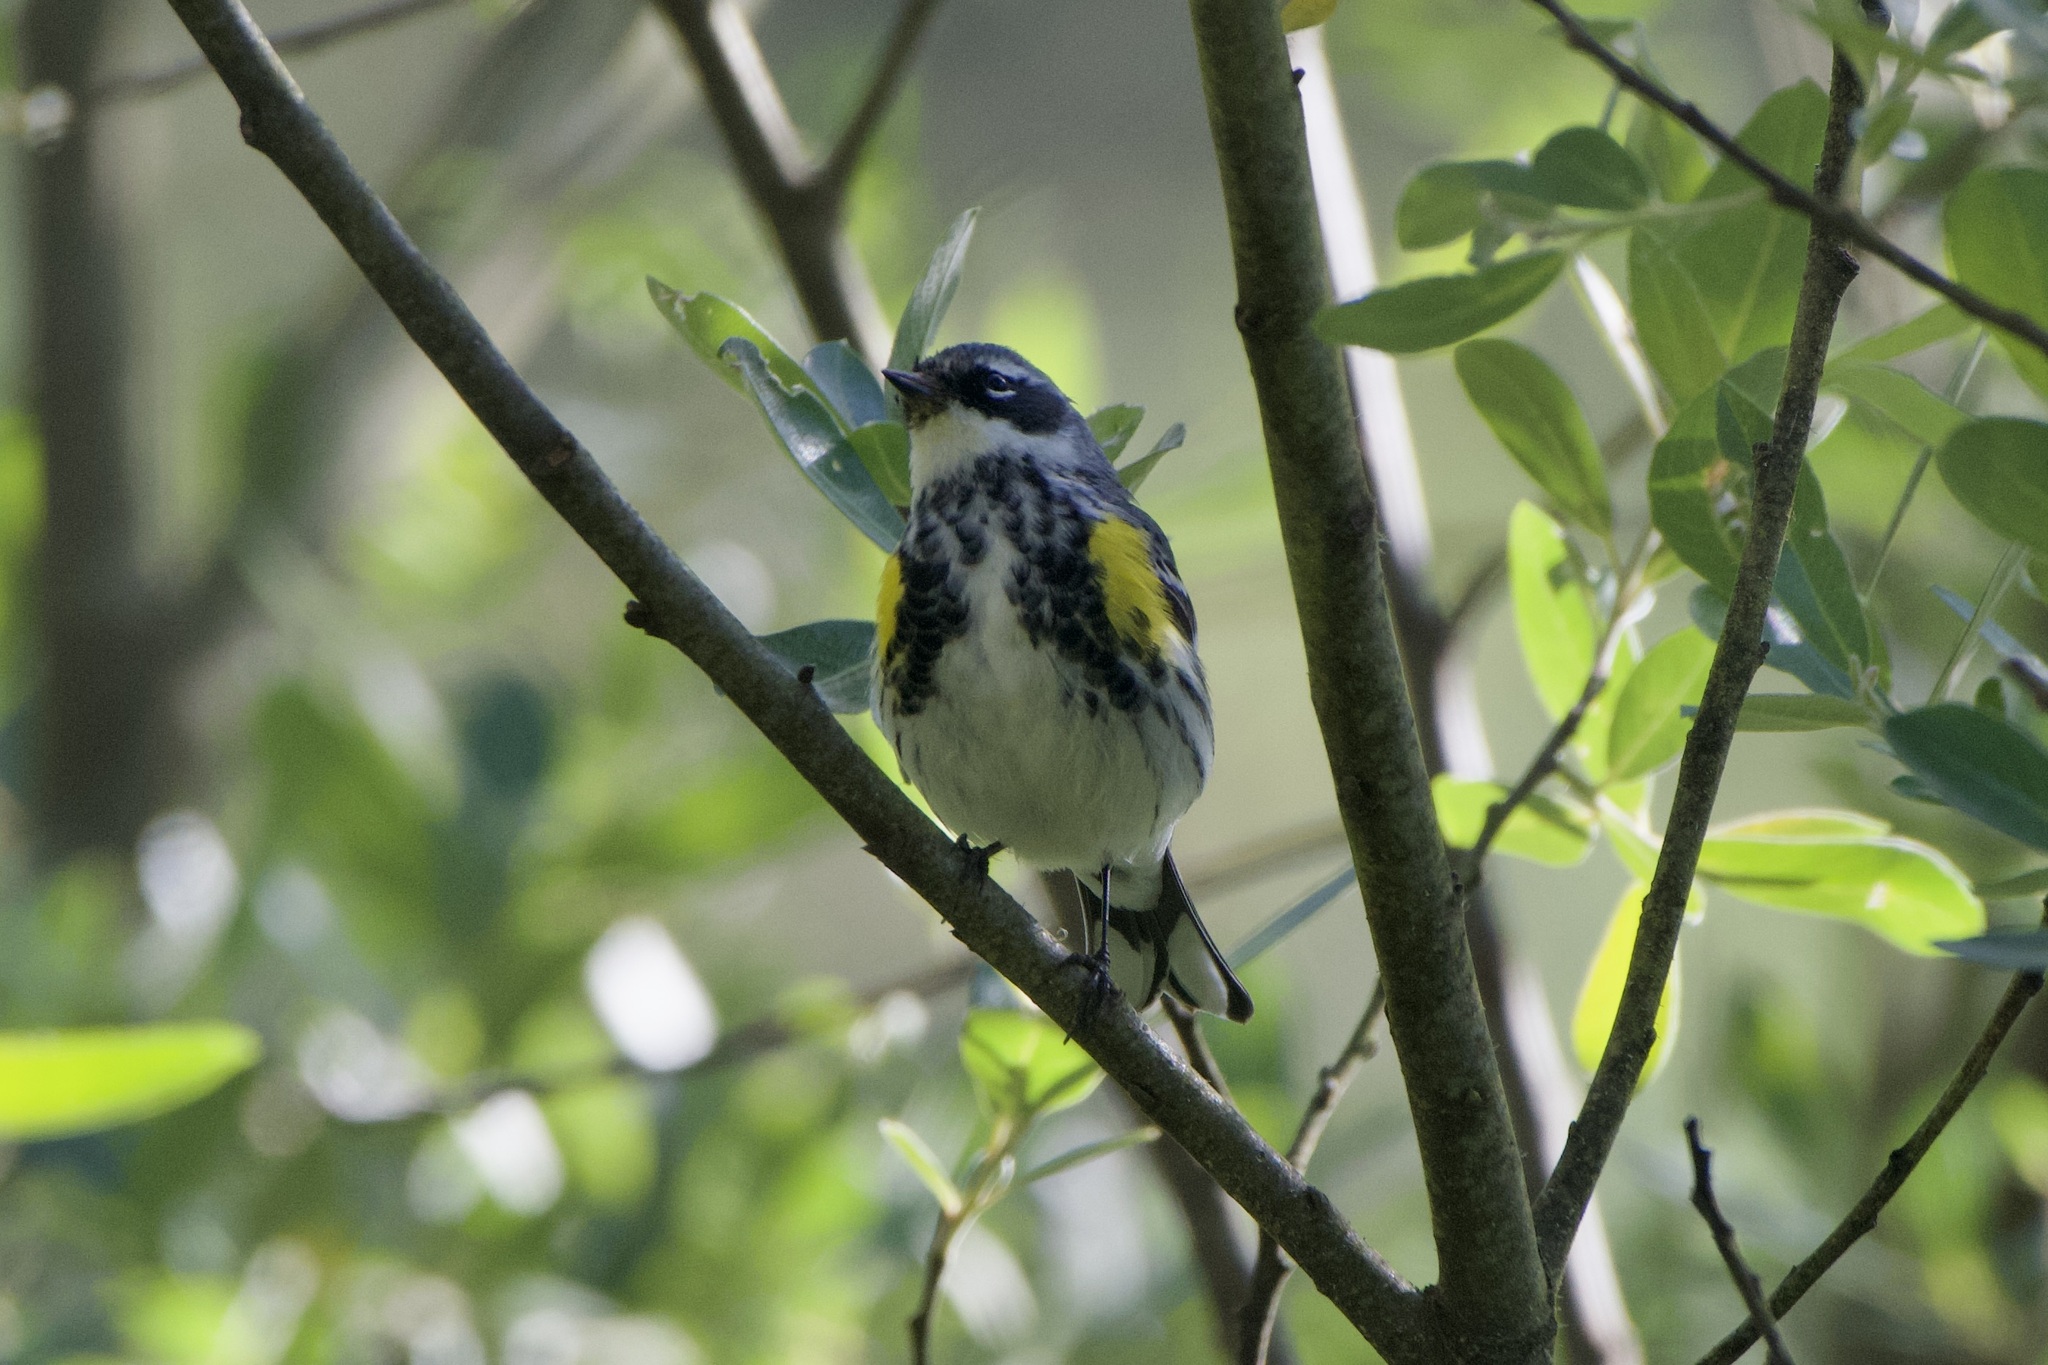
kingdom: Animalia
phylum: Chordata
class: Aves
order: Passeriformes
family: Parulidae
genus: Setophaga
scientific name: Setophaga coronata
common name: Myrtle warbler
